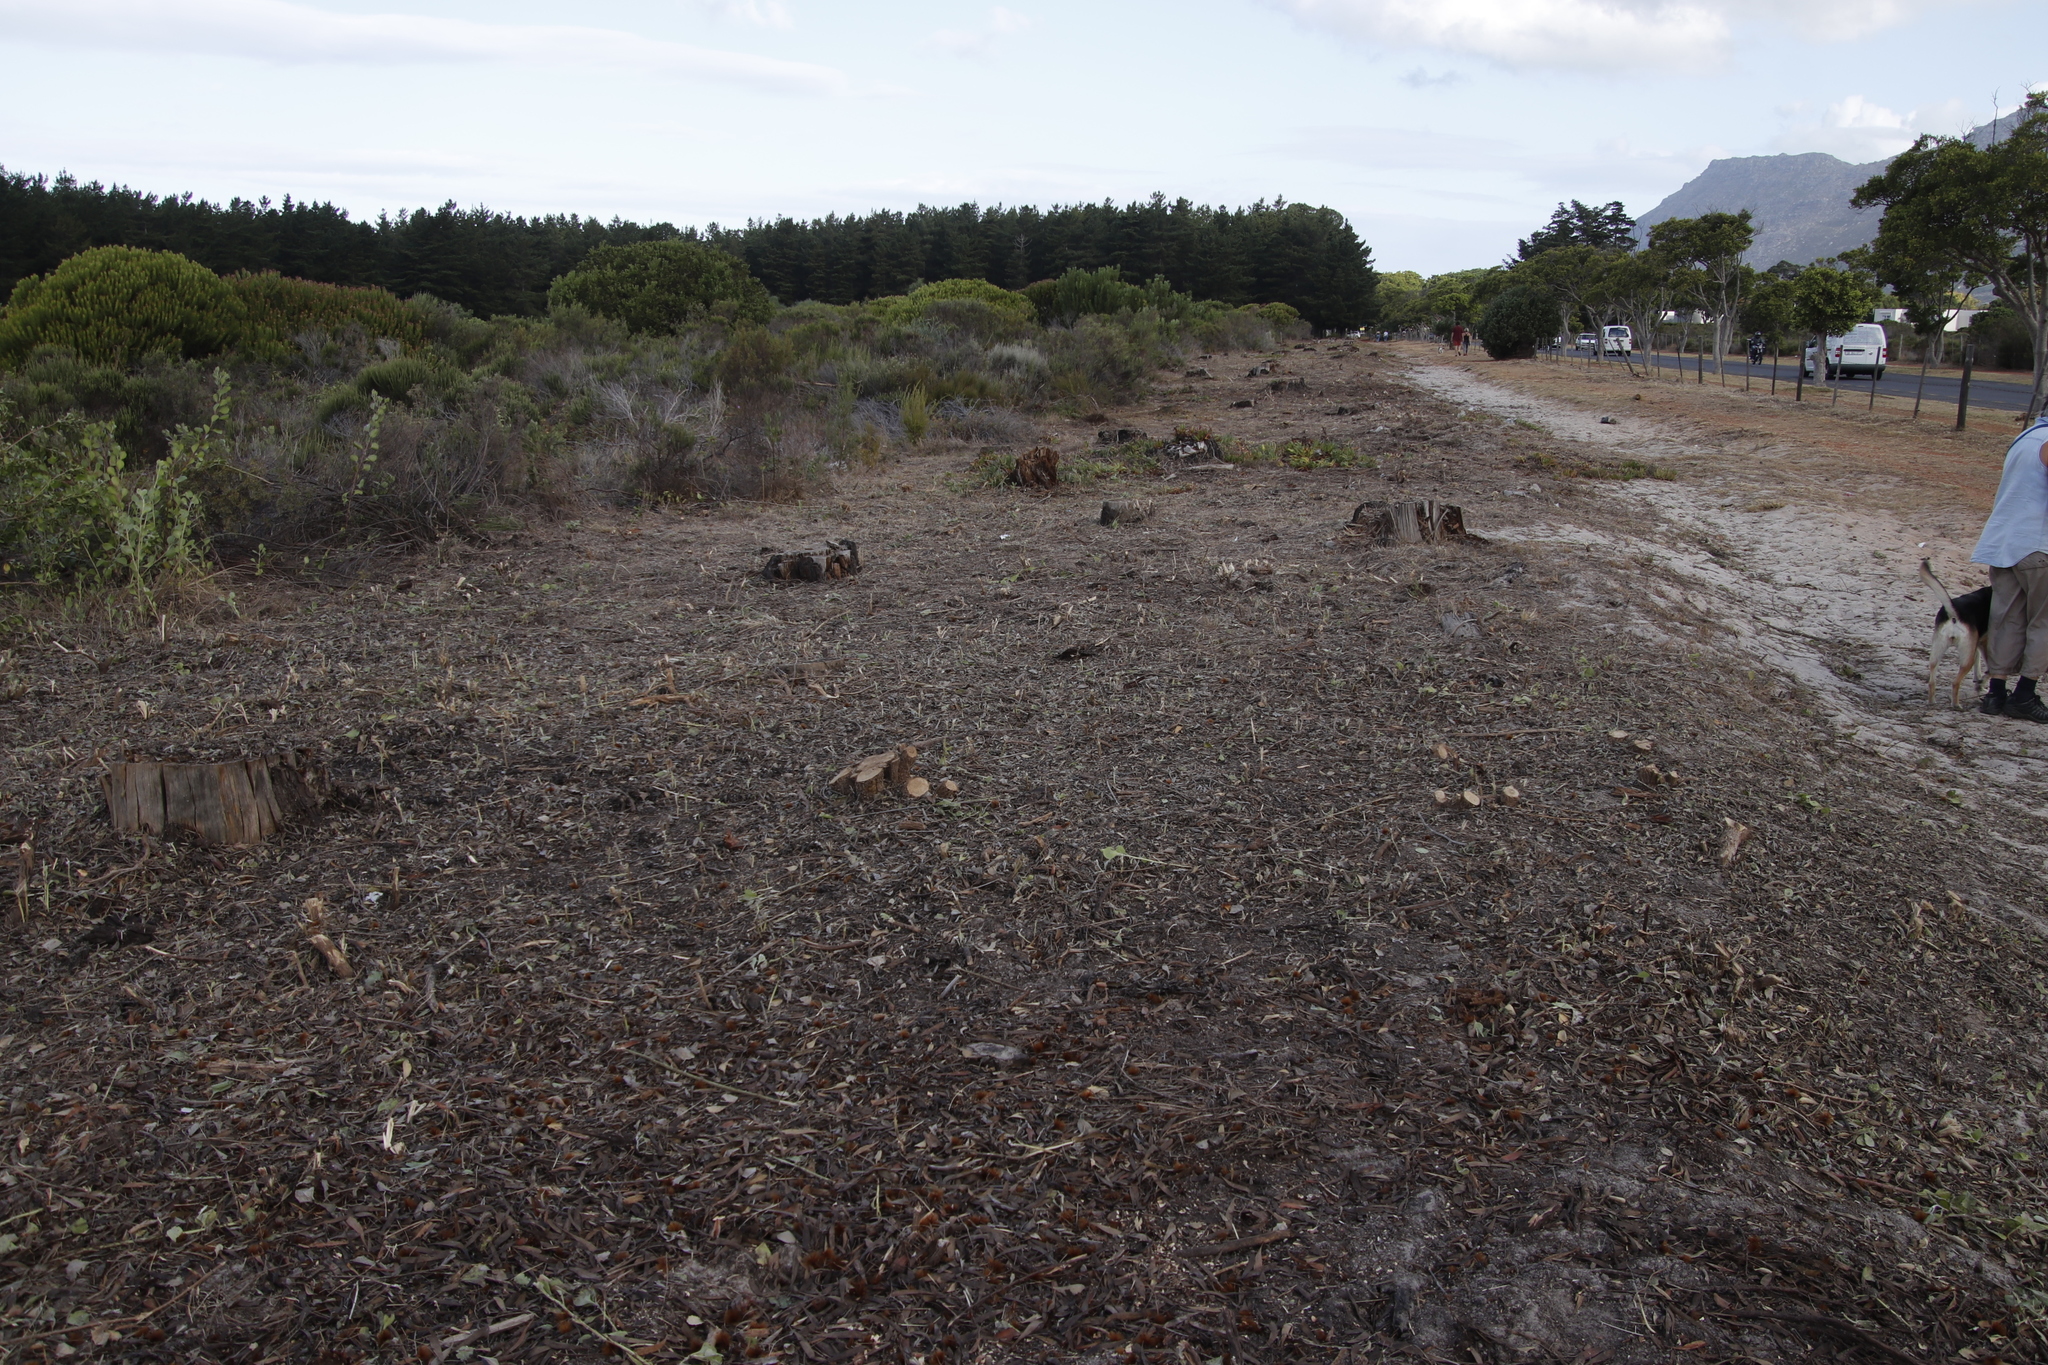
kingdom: Plantae
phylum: Tracheophyta
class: Magnoliopsida
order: Proteales
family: Proteaceae
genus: Leucadendron
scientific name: Leucadendron laureolum
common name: Golden sunshinebush
